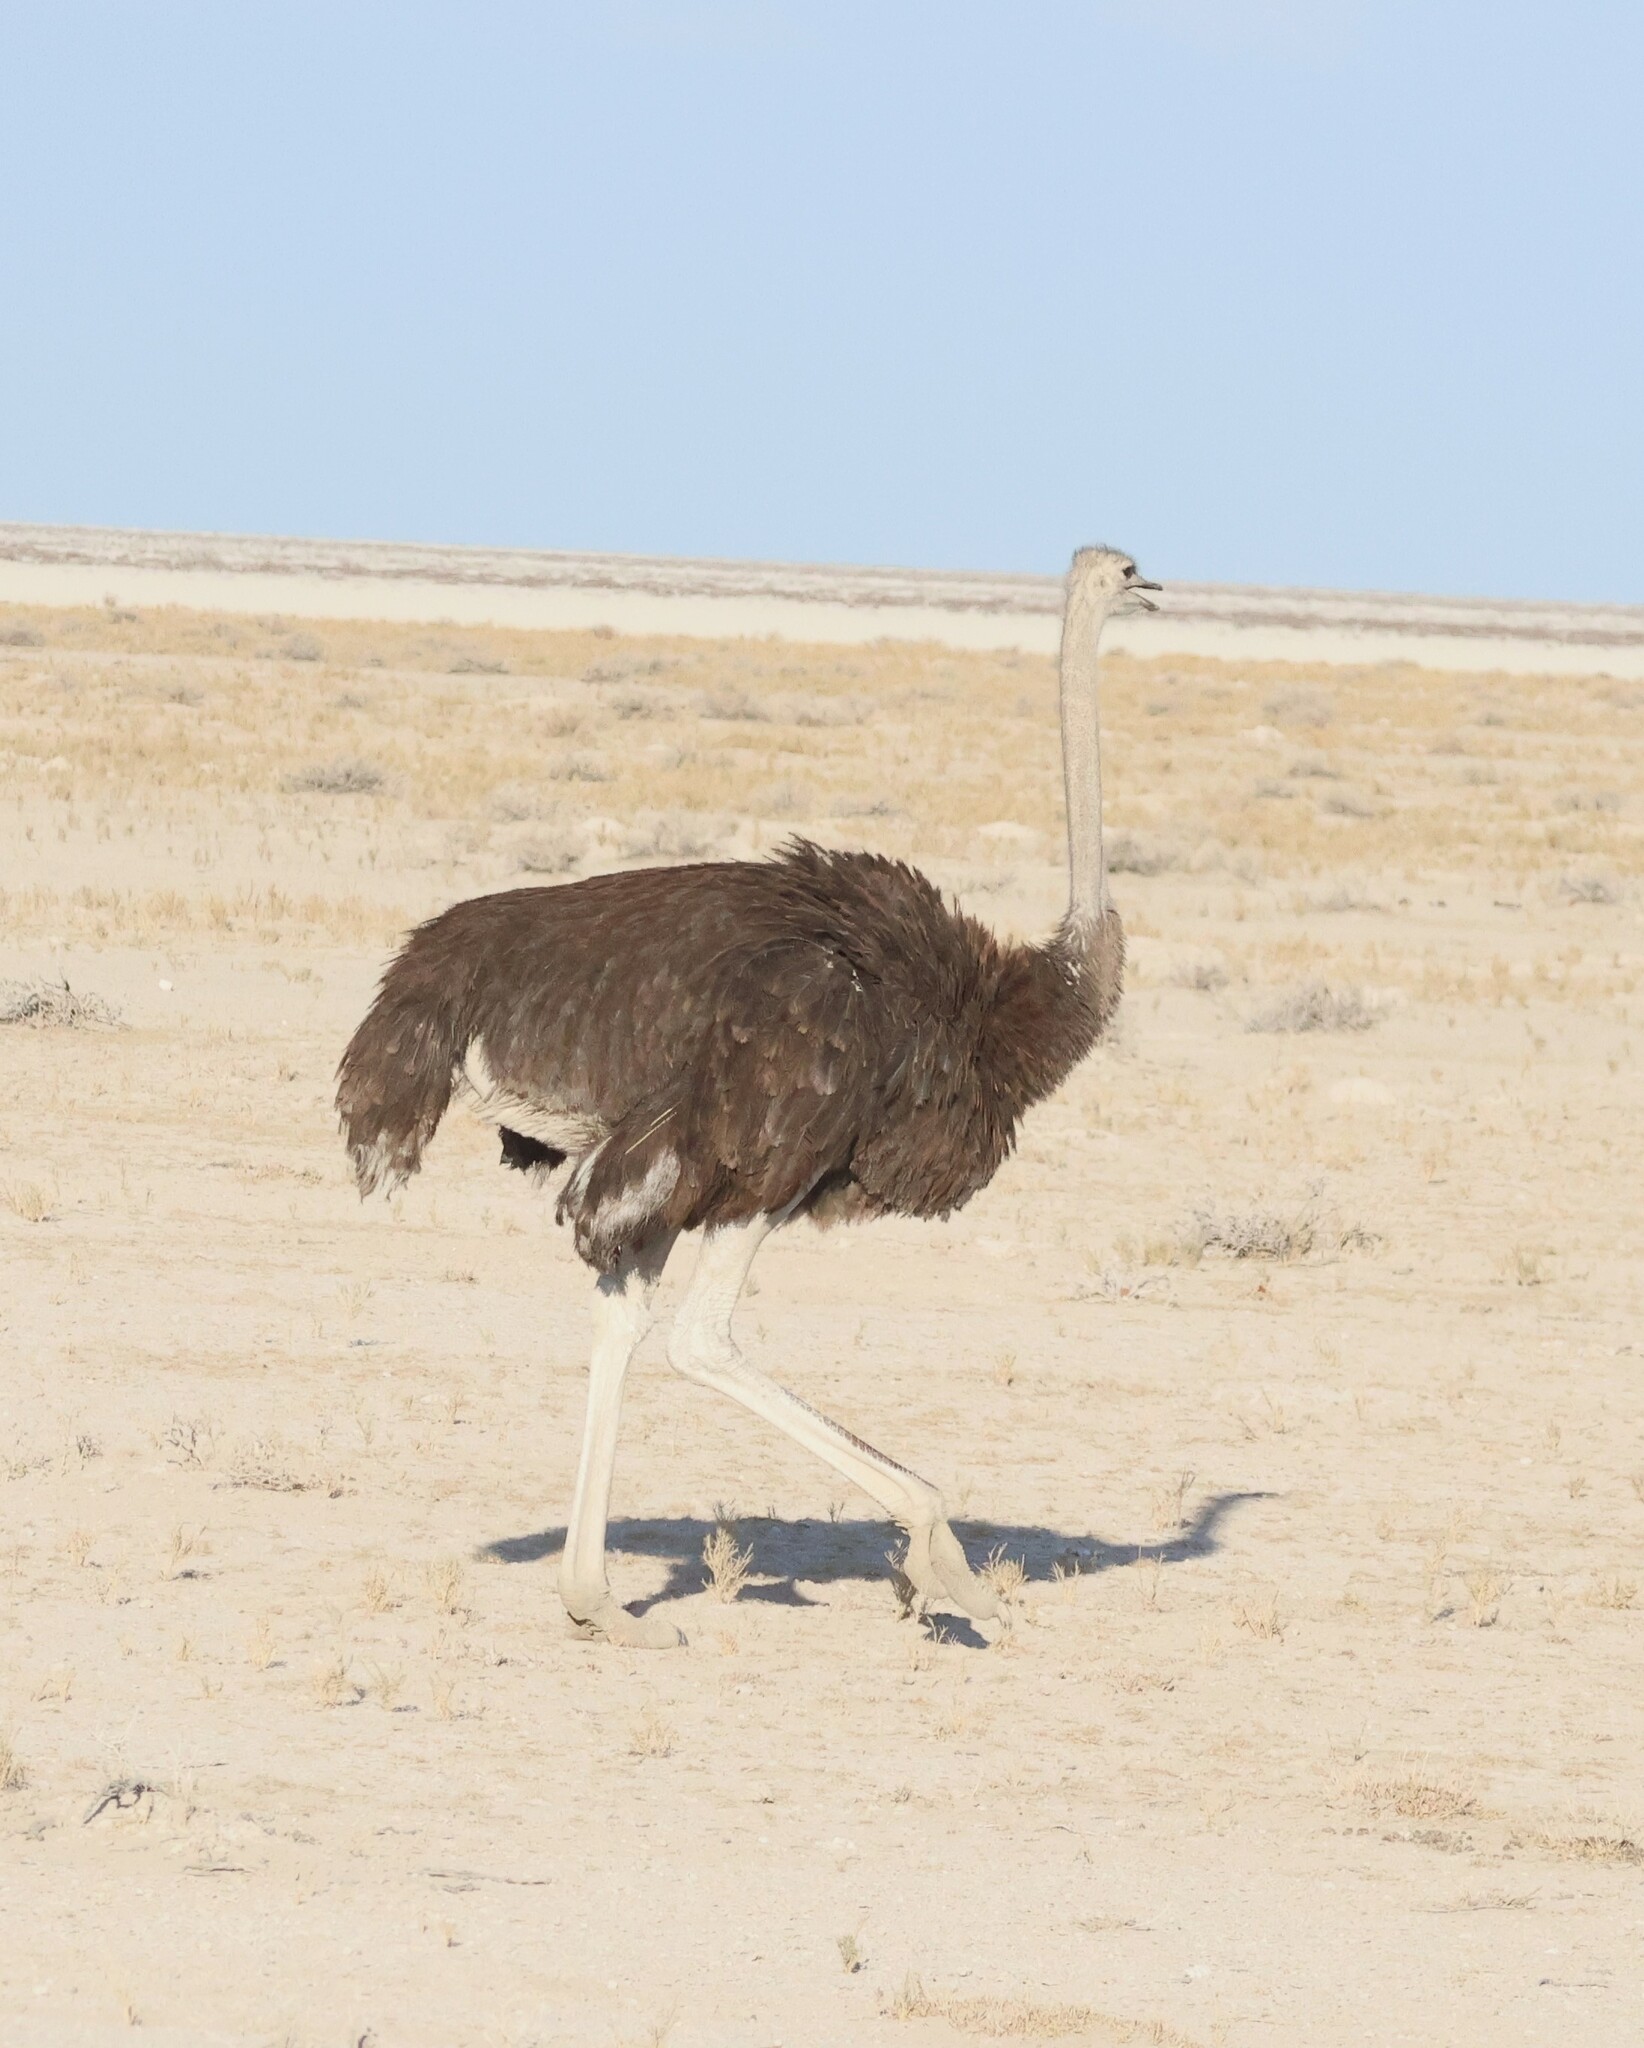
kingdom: Animalia
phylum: Chordata
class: Aves
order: Struthioniformes
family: Struthionidae
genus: Struthio
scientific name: Struthio camelus
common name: Common ostrich
